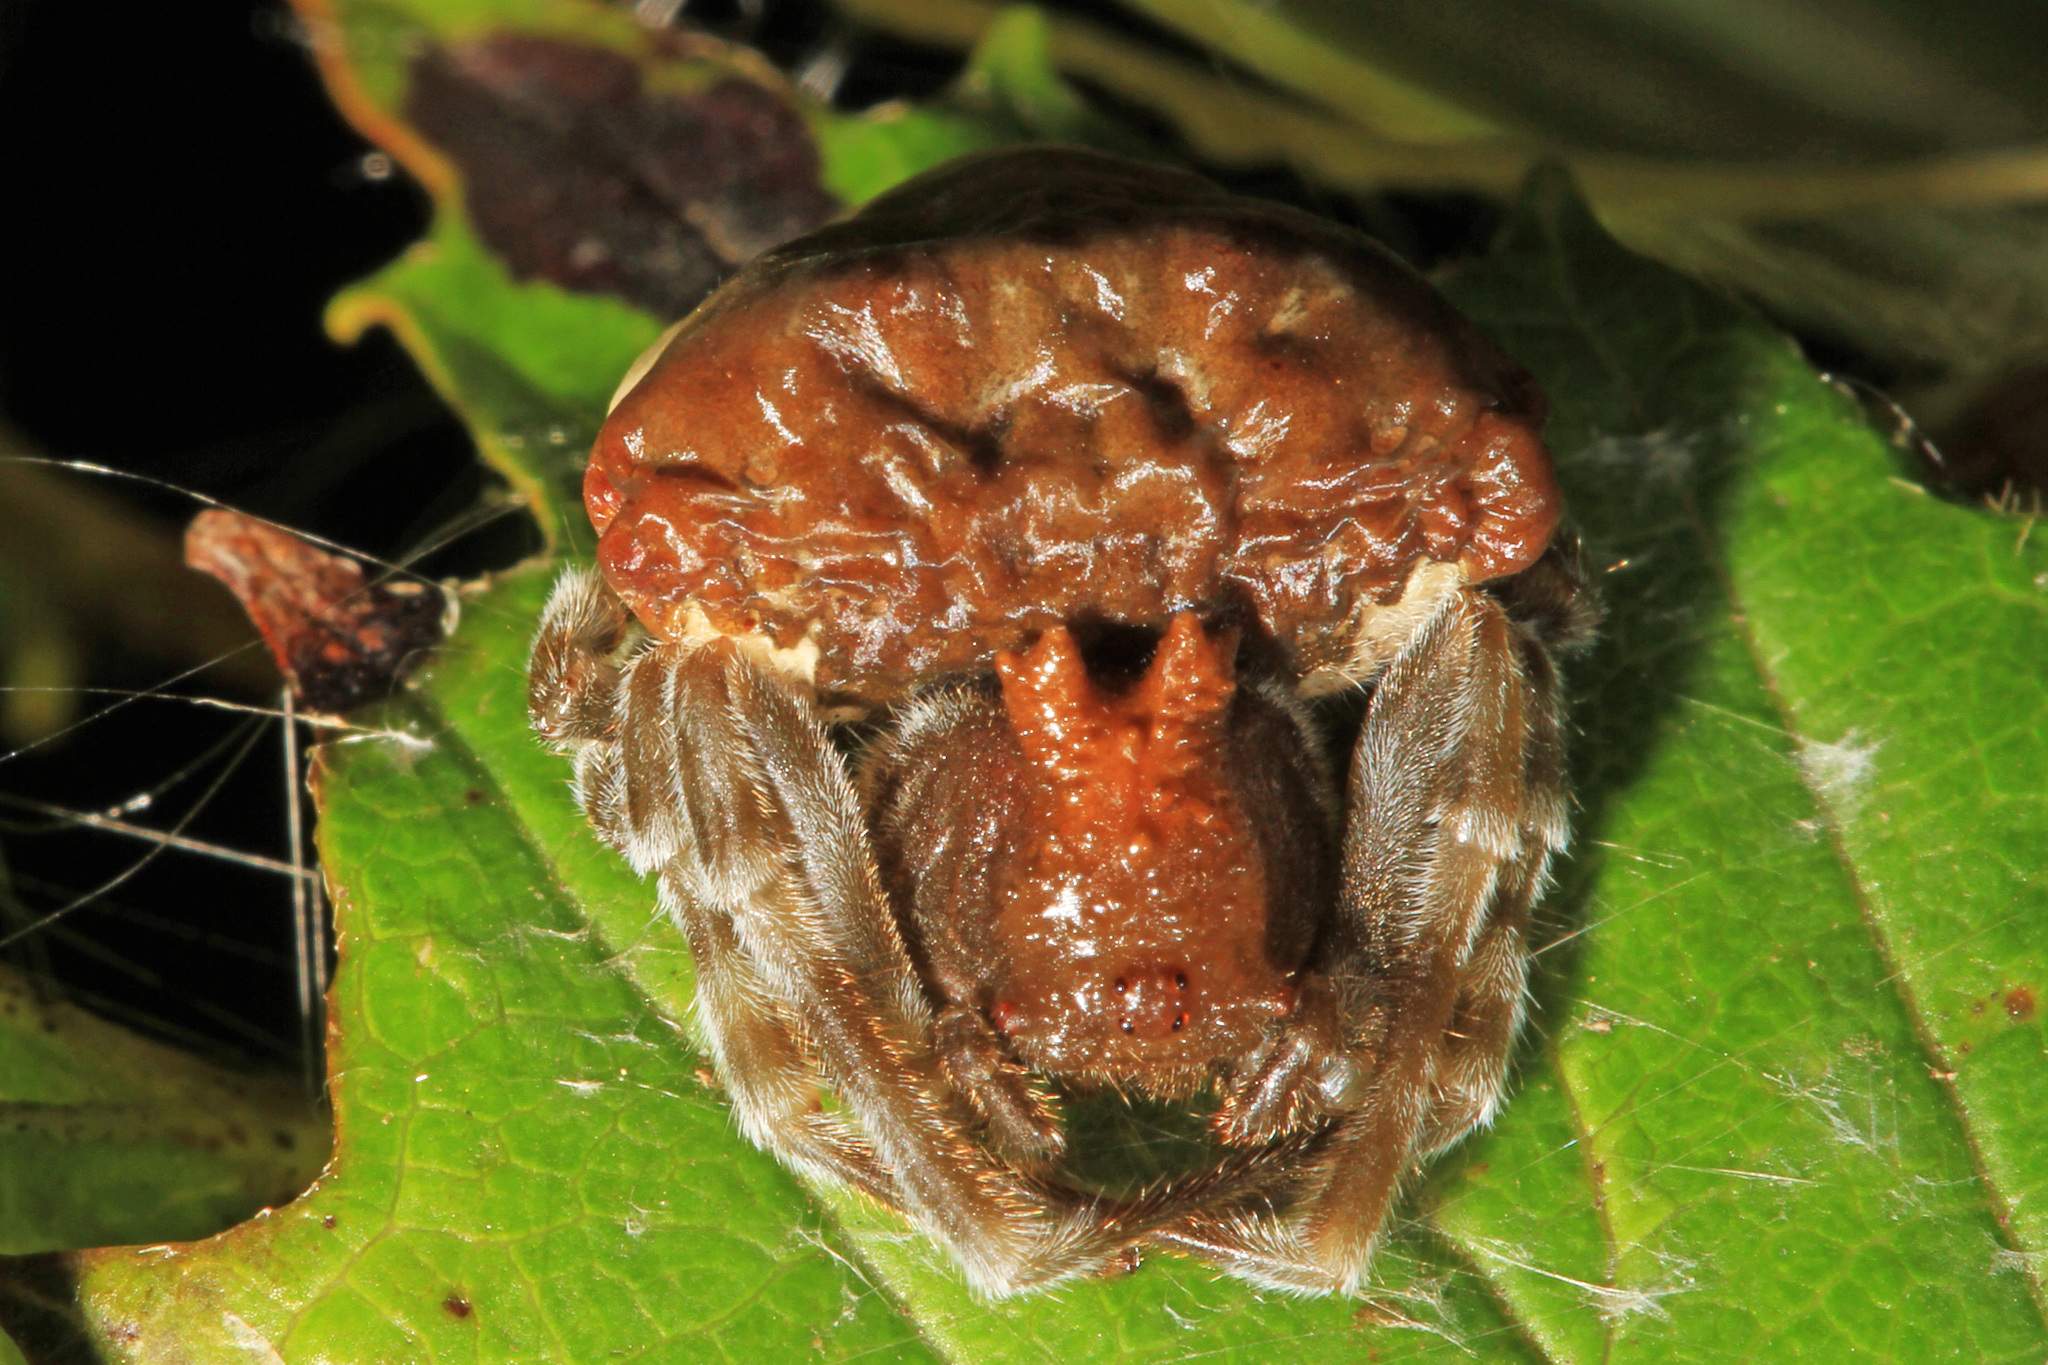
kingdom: Animalia
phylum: Arthropoda
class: Arachnida
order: Araneae
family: Araneidae
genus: Mastophora
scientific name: Mastophora phrynosoma
